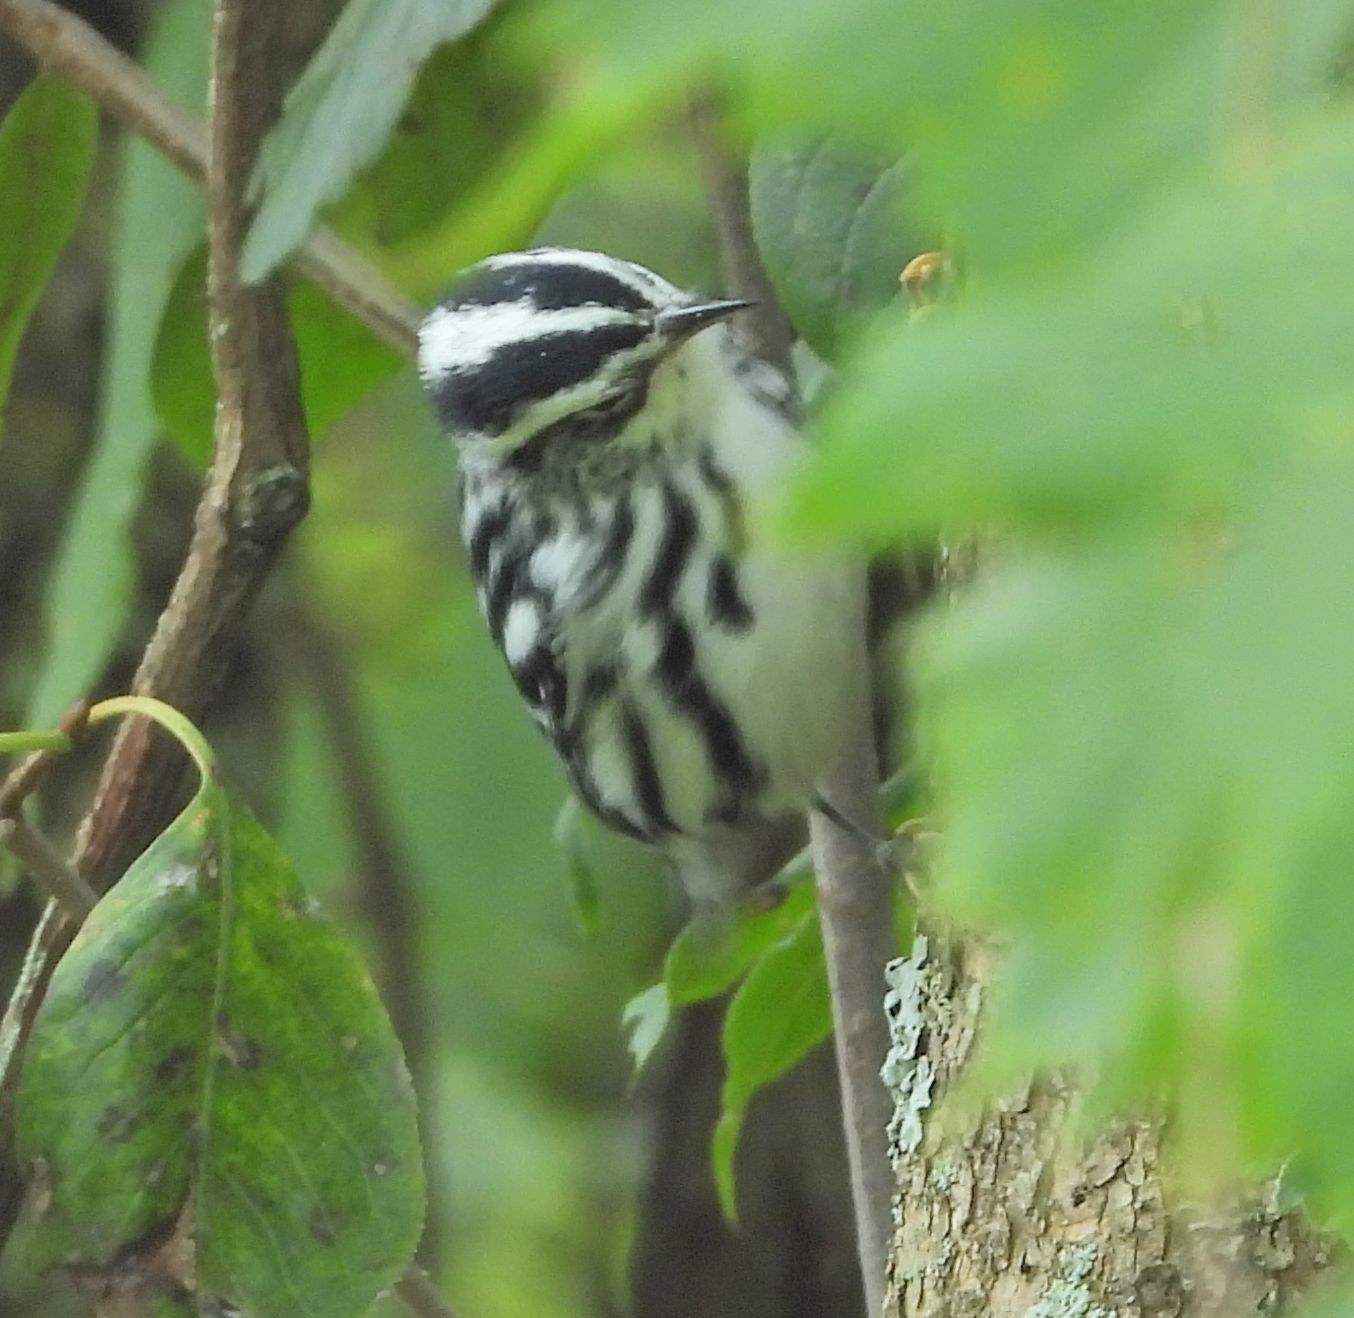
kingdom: Animalia
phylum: Chordata
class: Aves
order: Passeriformes
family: Parulidae
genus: Mniotilta
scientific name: Mniotilta varia
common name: Black-and-white warbler
